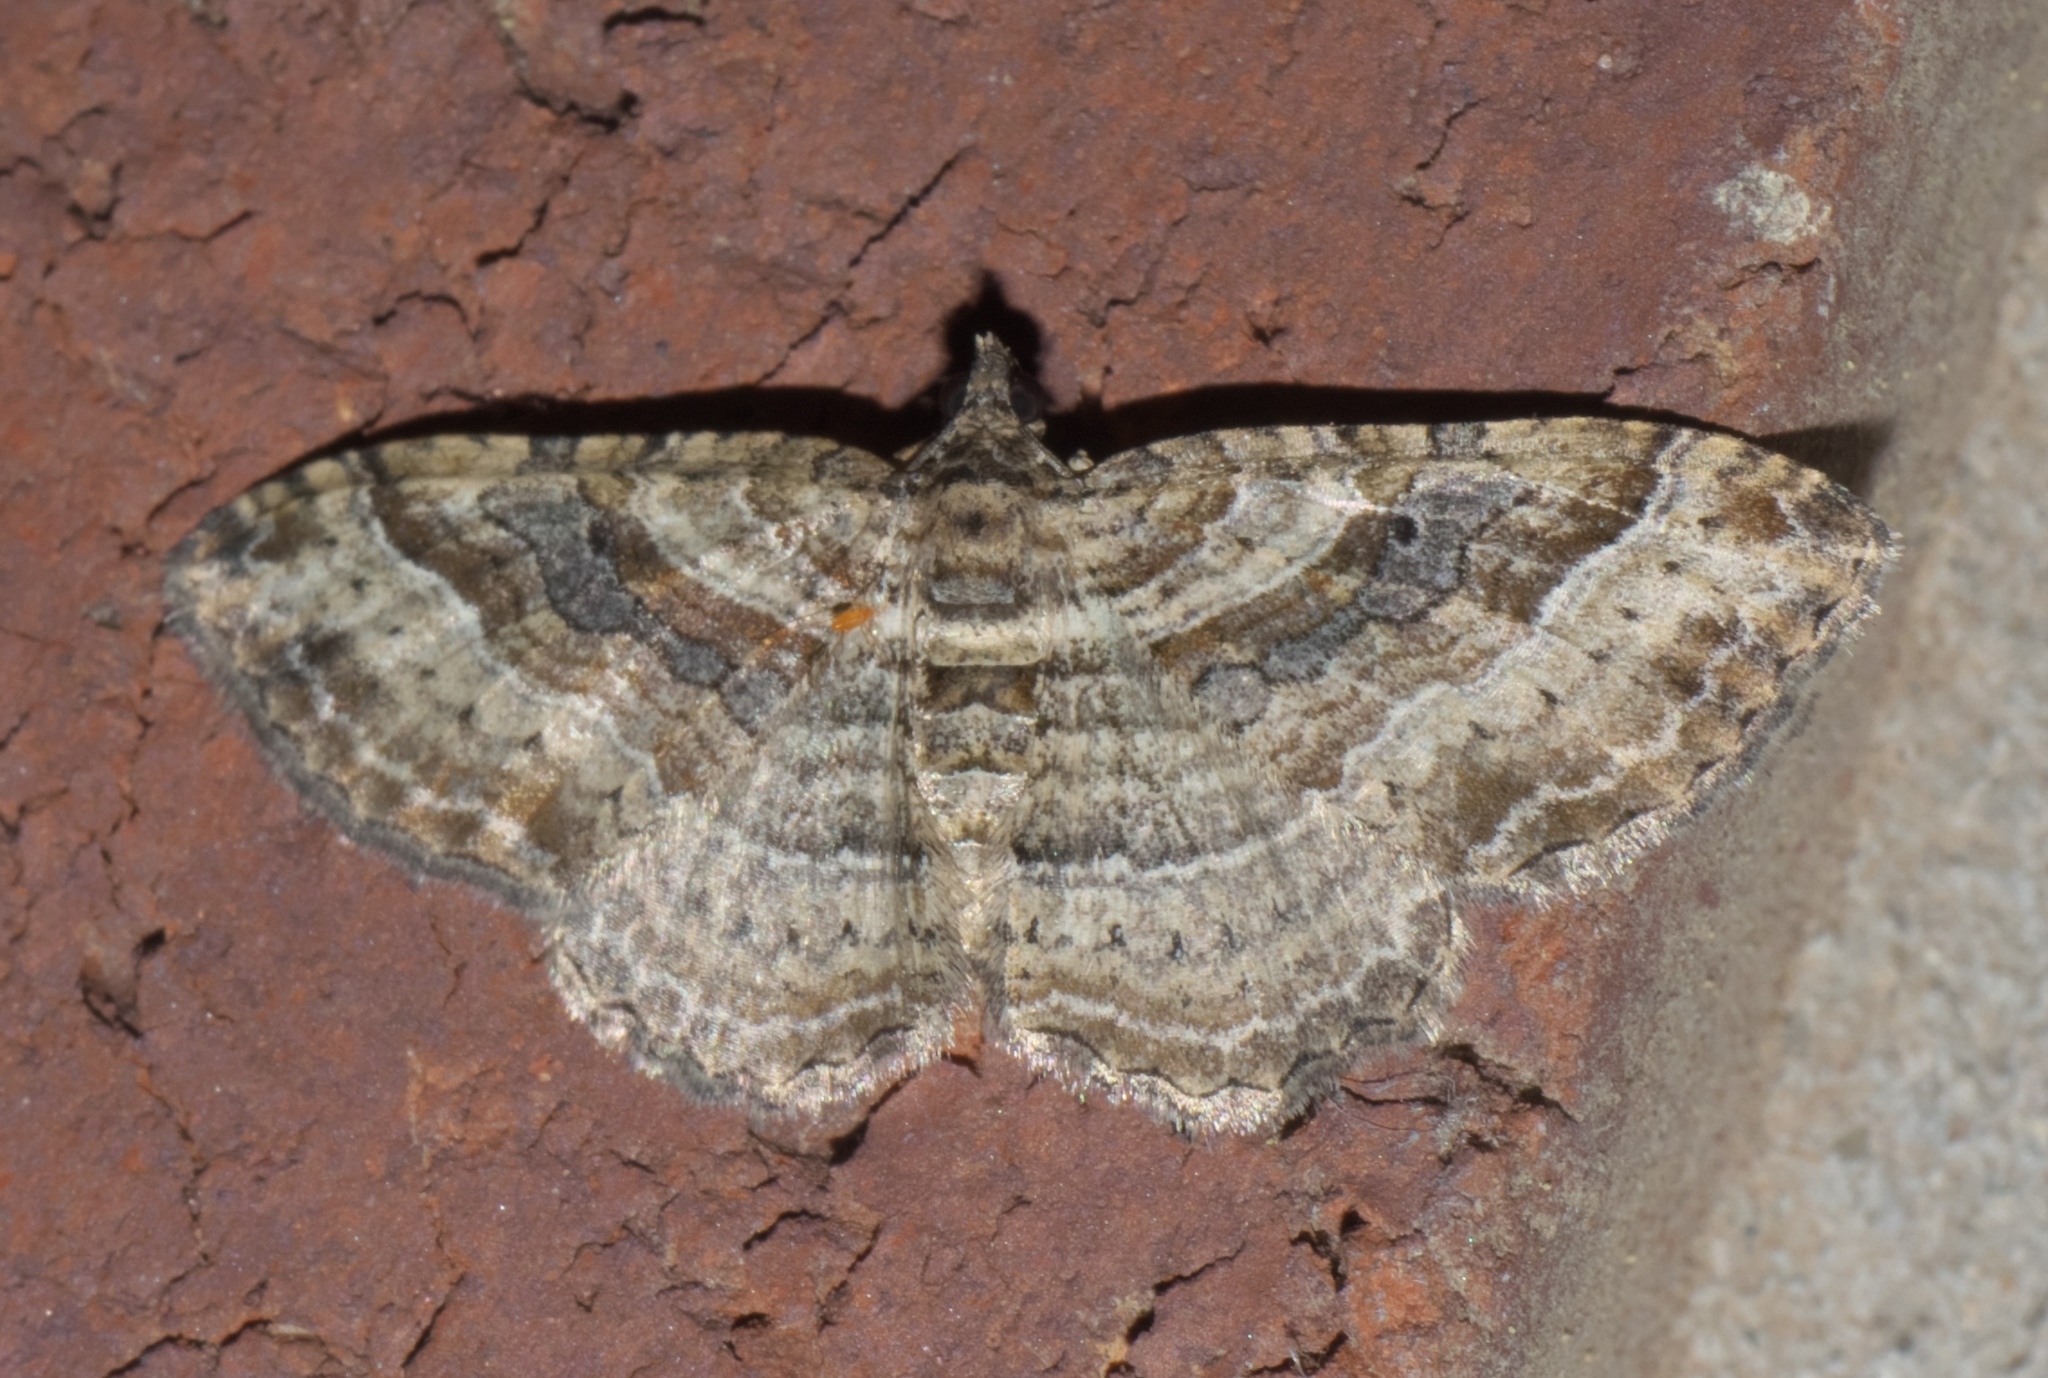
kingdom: Animalia
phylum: Arthropoda
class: Insecta
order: Lepidoptera
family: Geometridae
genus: Costaconvexa
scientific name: Costaconvexa centrostrigaria
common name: Bent-line carpet
